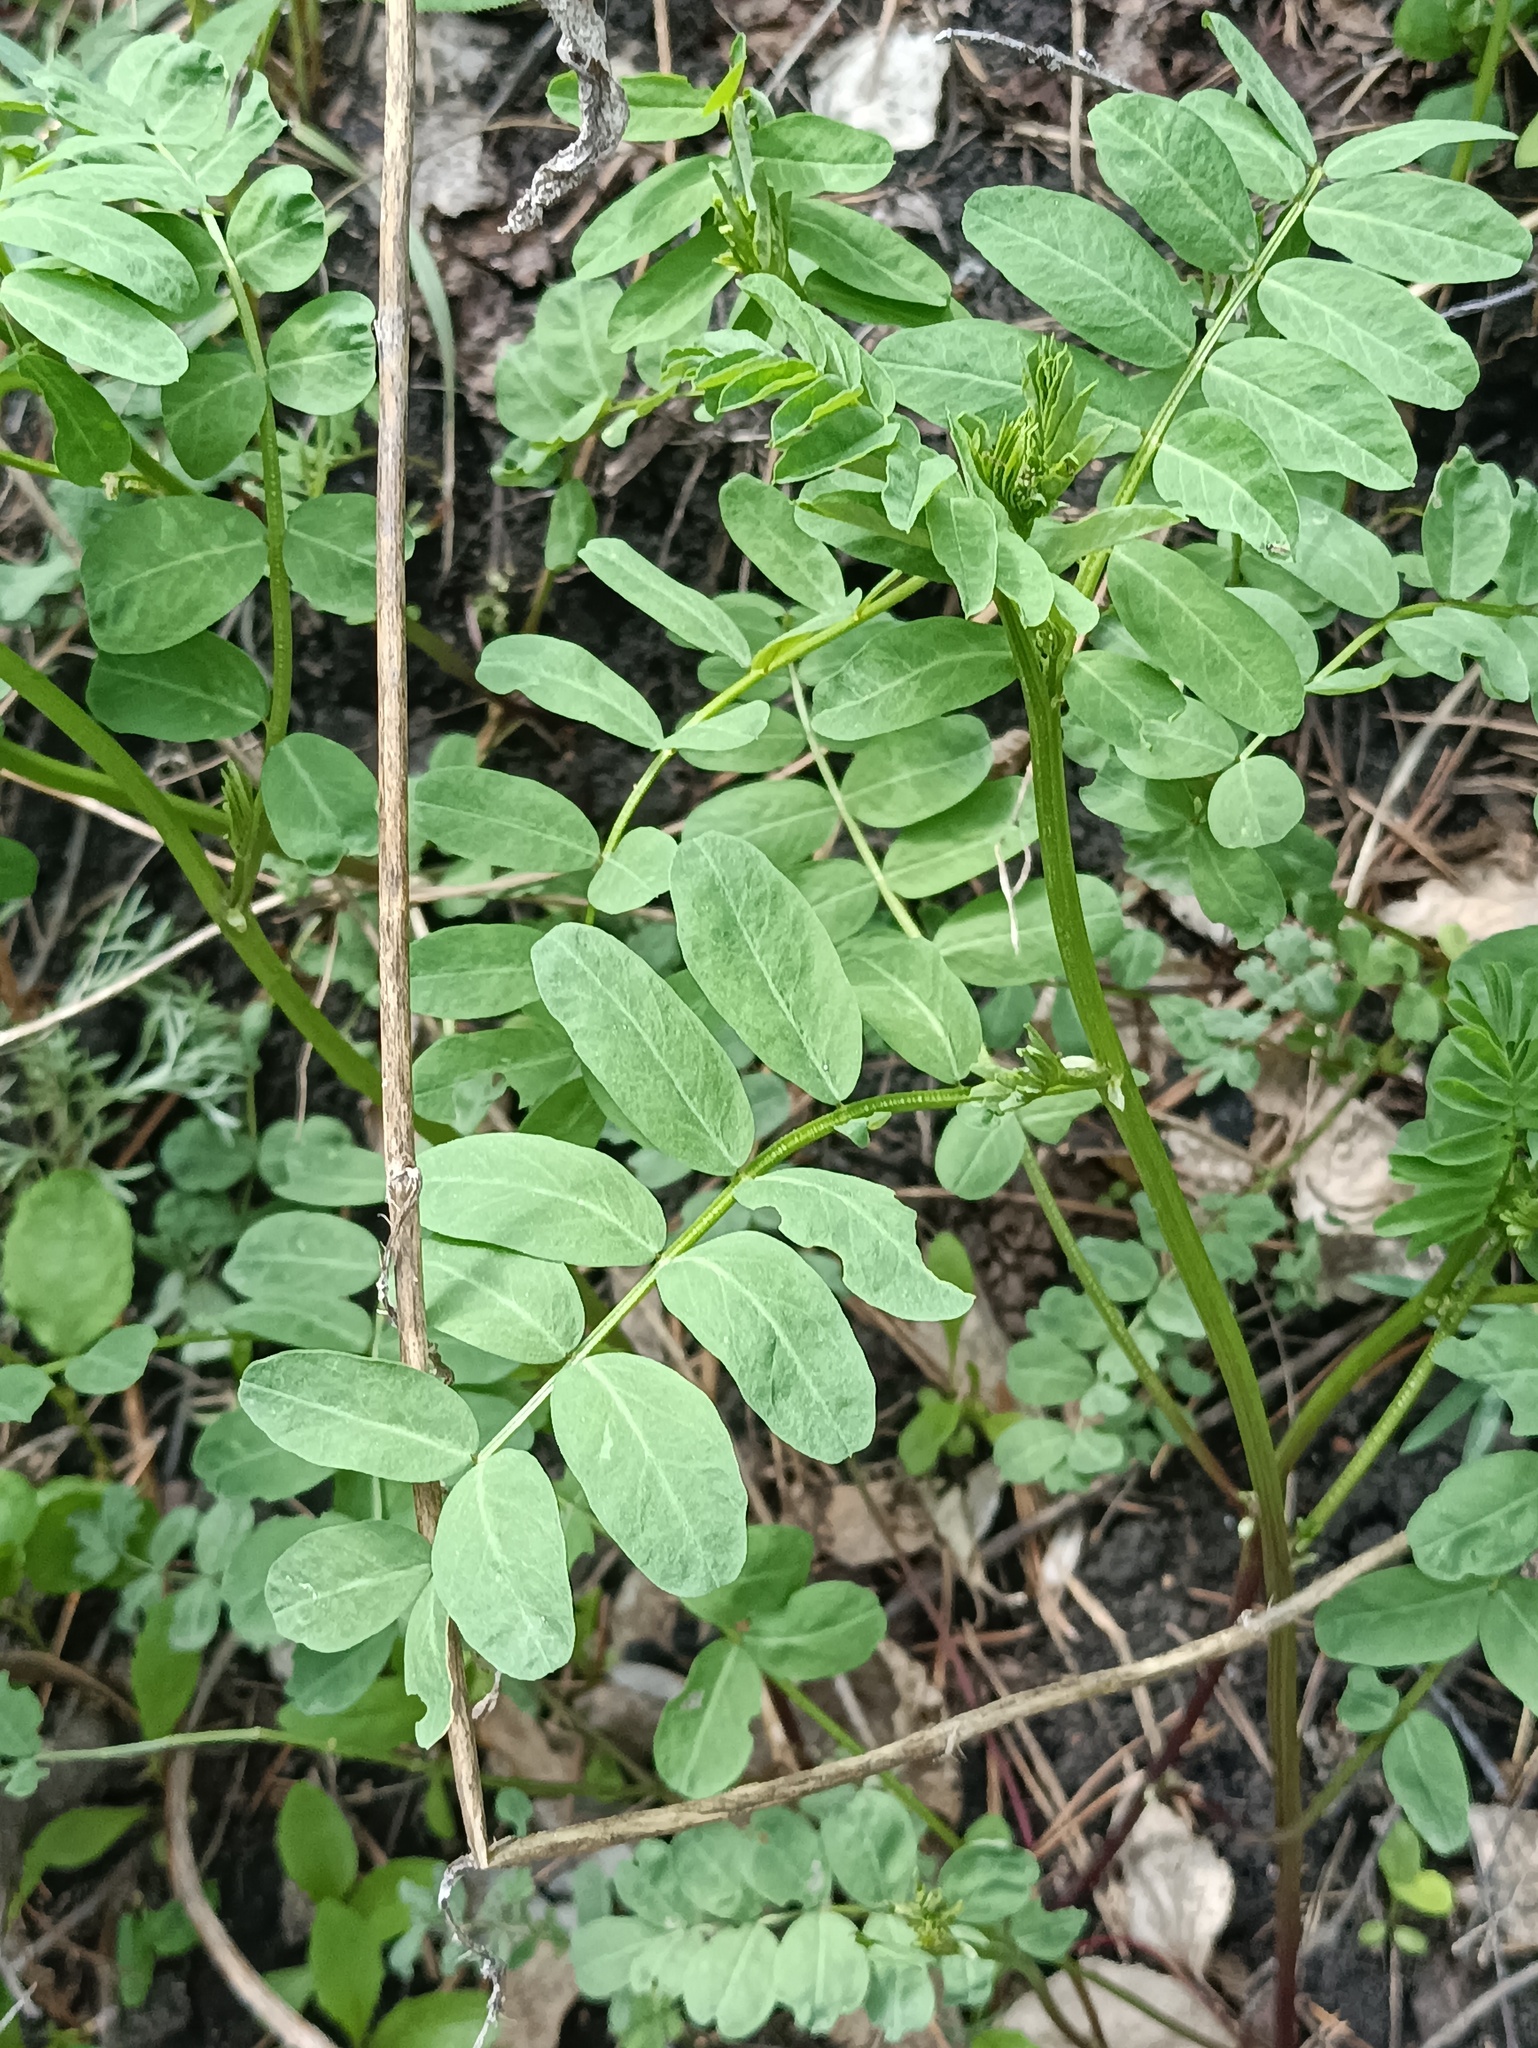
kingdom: Plantae
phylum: Tracheophyta
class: Magnoliopsida
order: Fabales
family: Fabaceae
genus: Coronilla
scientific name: Coronilla varia
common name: Crownvetch
